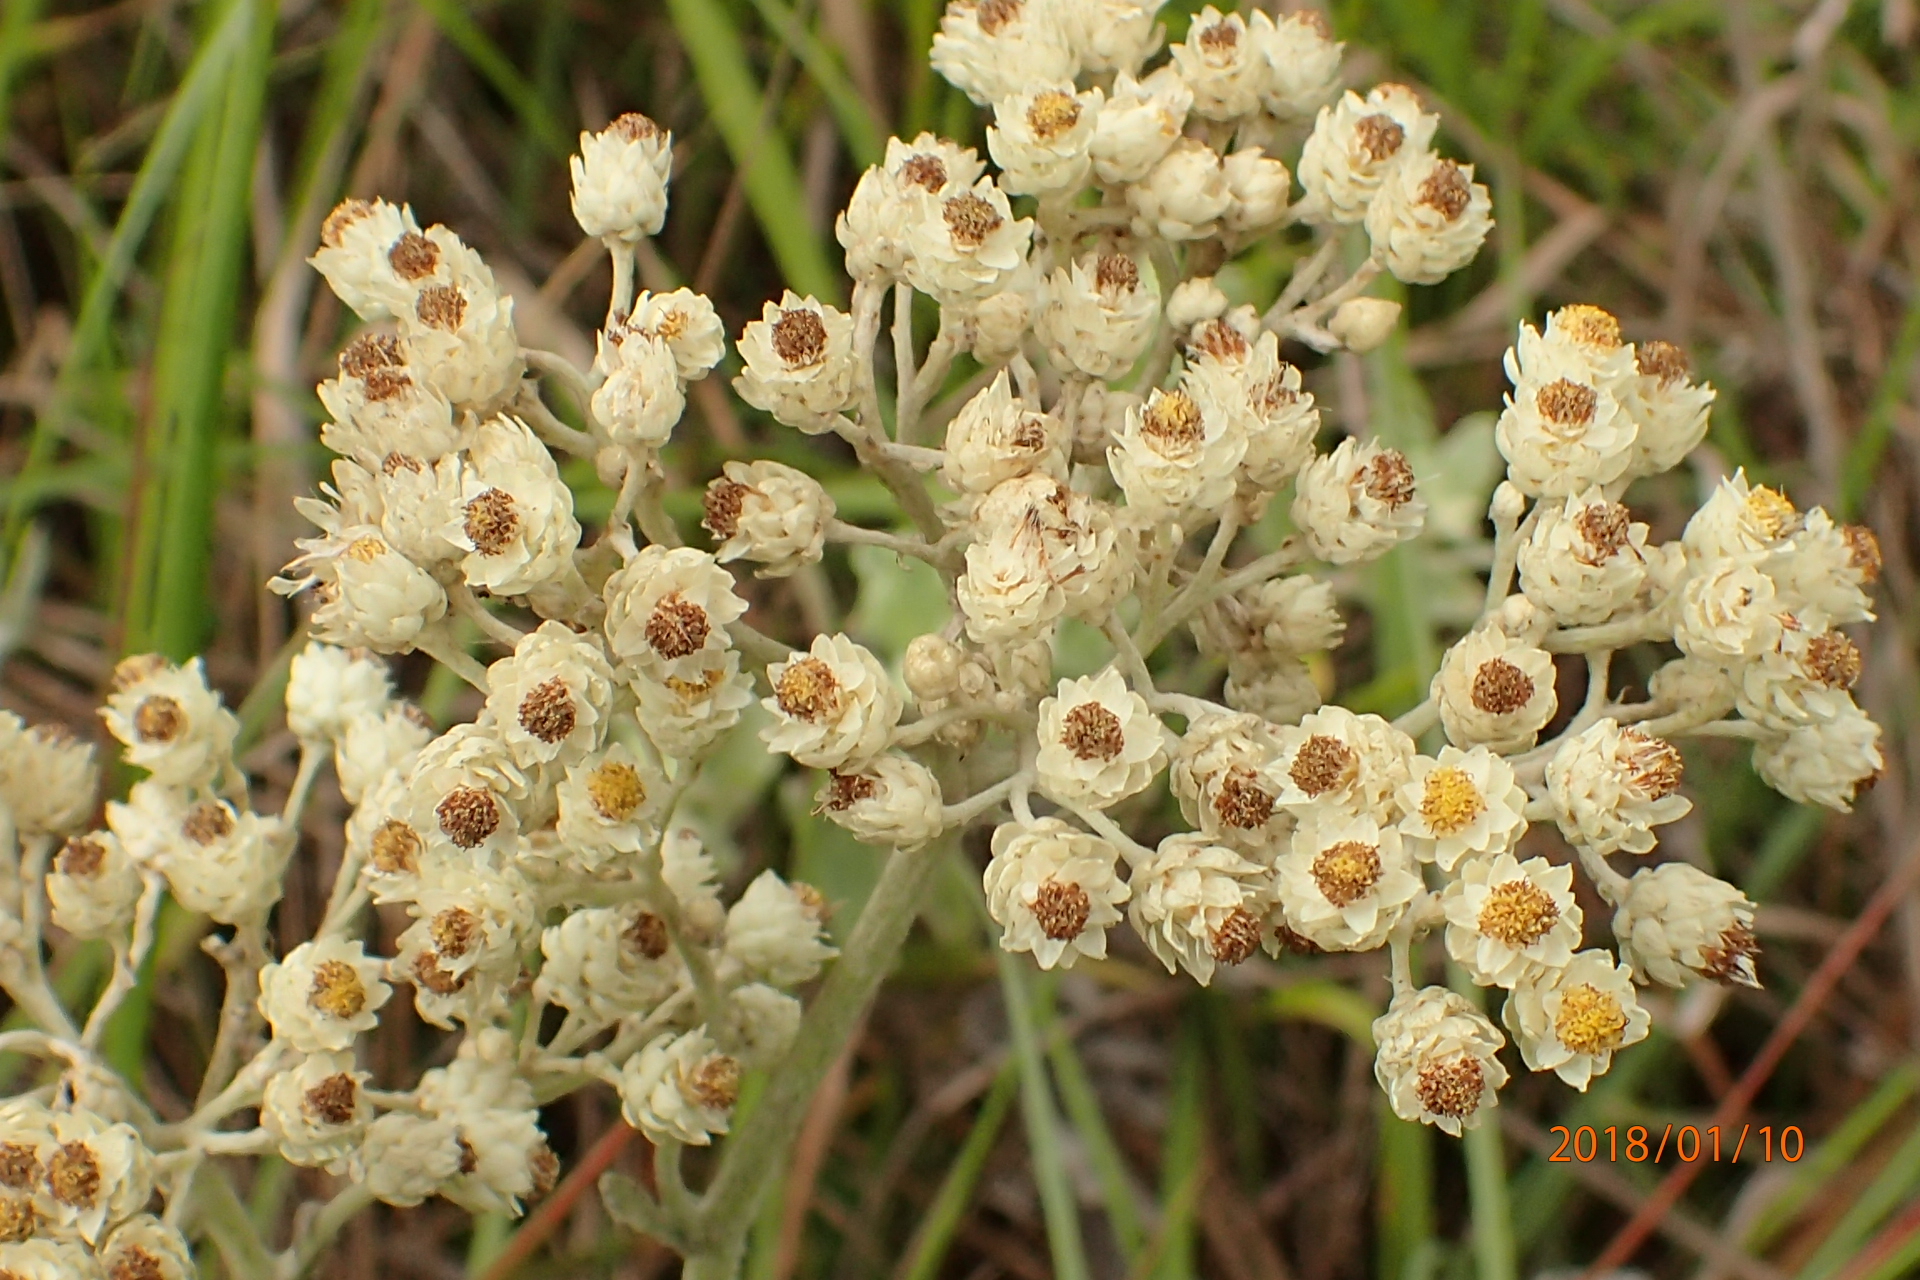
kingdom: Plantae
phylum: Tracheophyta
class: Magnoliopsida
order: Asterales
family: Asteraceae
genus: Helichrysum
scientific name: Helichrysum panduratum
